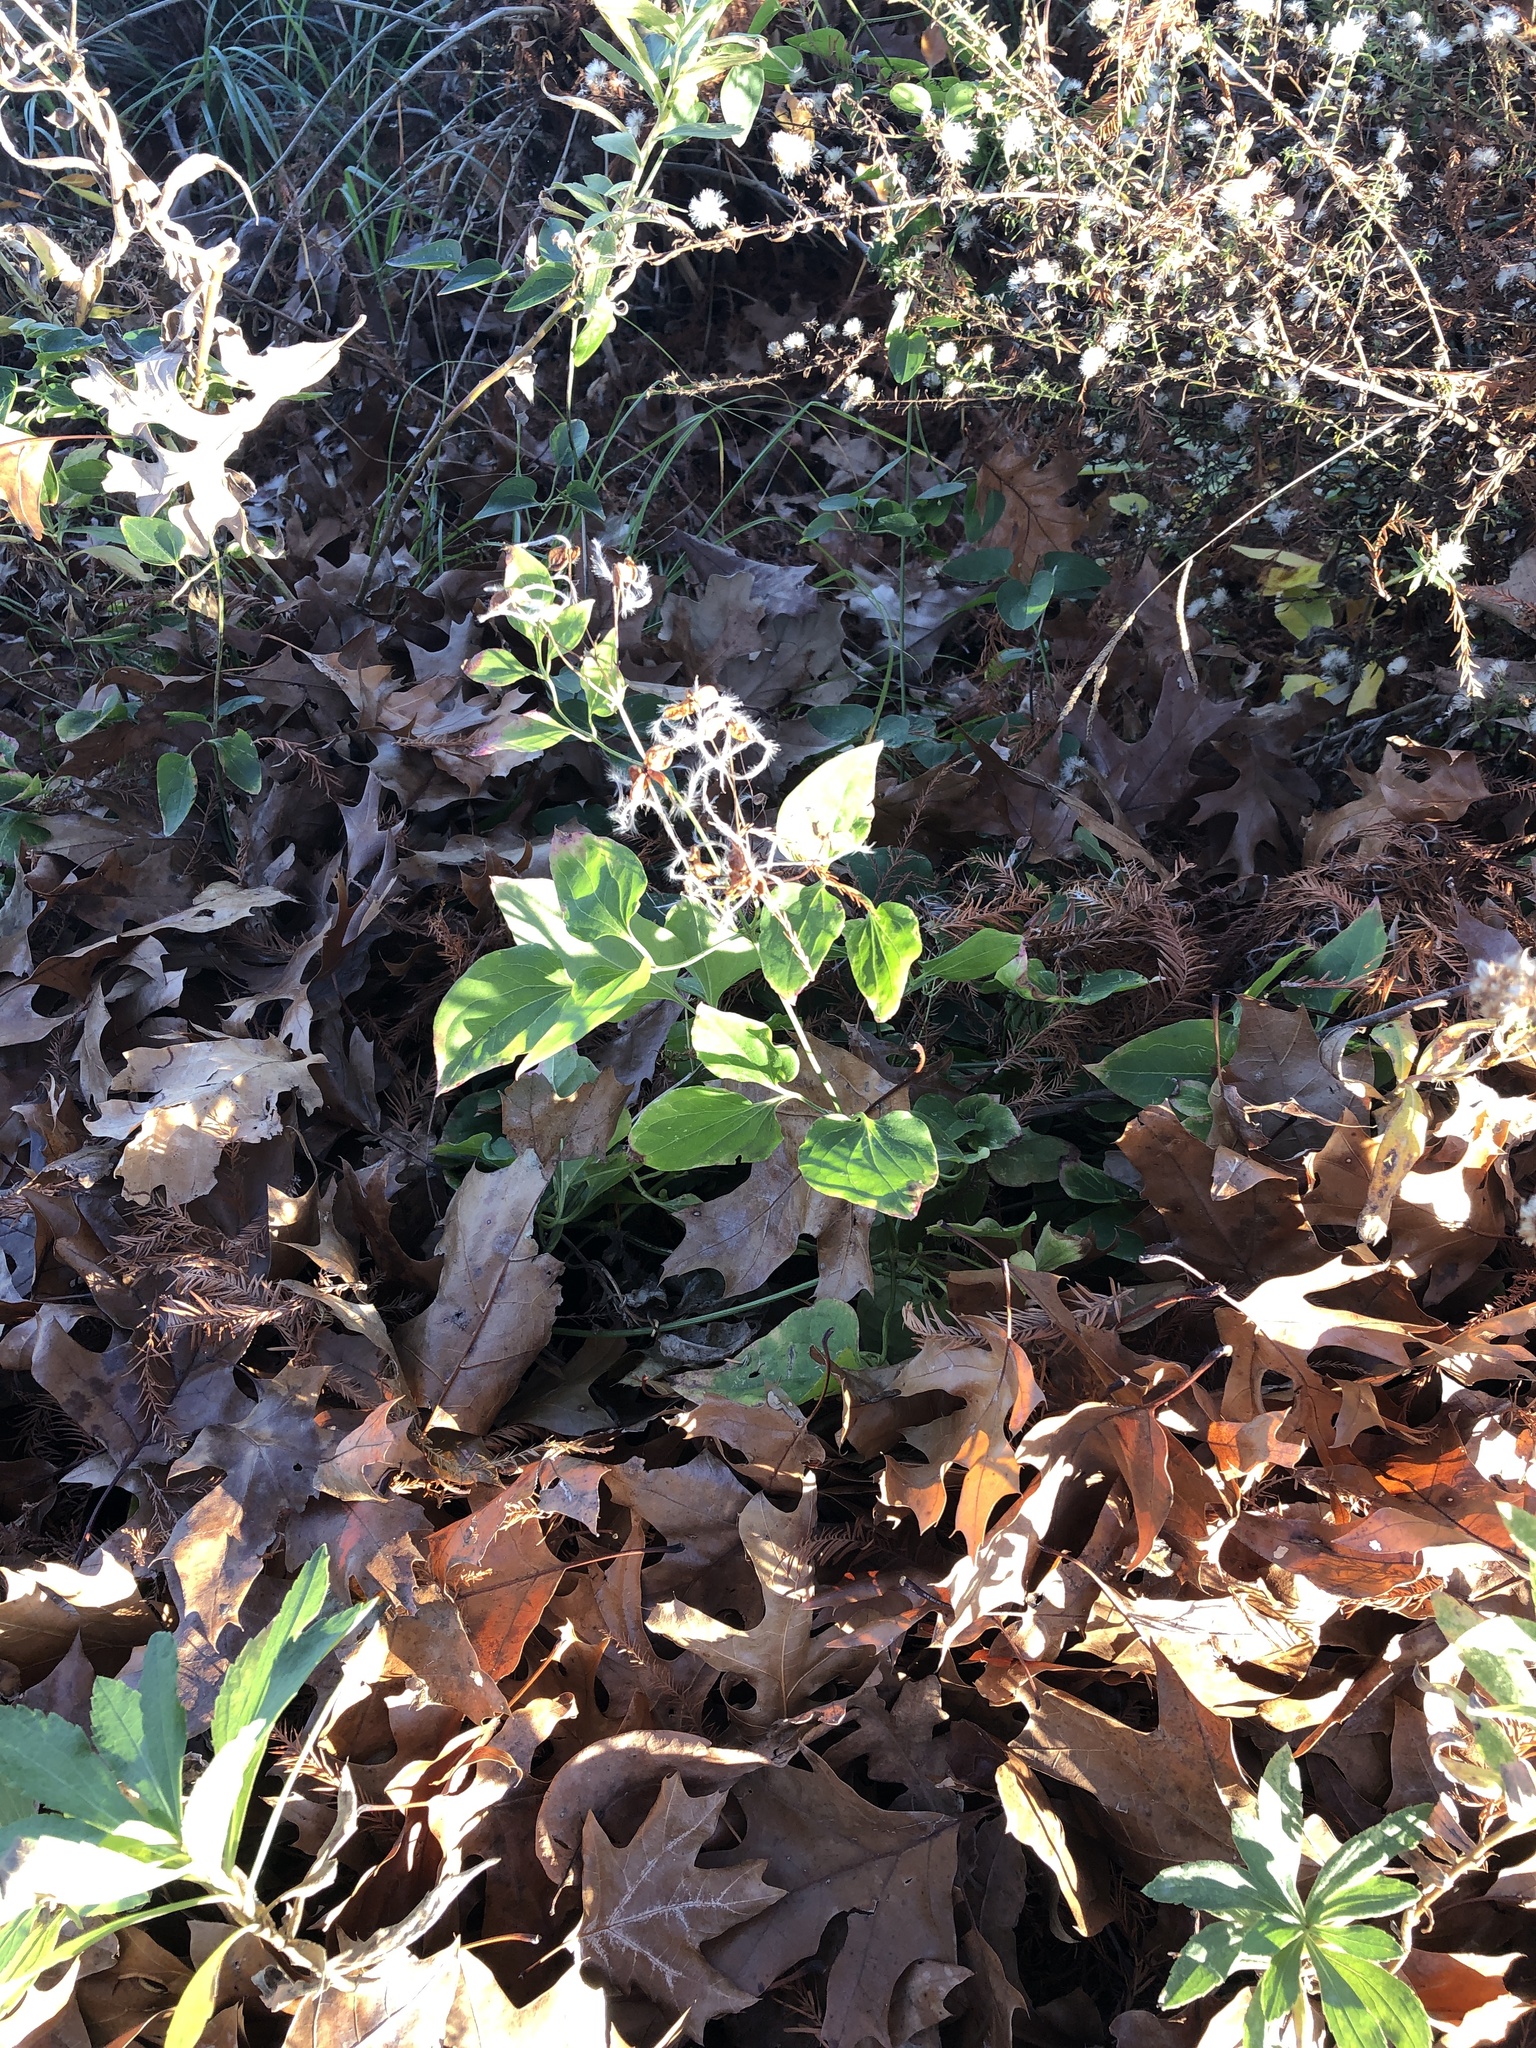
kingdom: Plantae
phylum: Tracheophyta
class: Magnoliopsida
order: Ranunculales
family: Ranunculaceae
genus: Clematis
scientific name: Clematis terniflora
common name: Sweet autumn clematis
